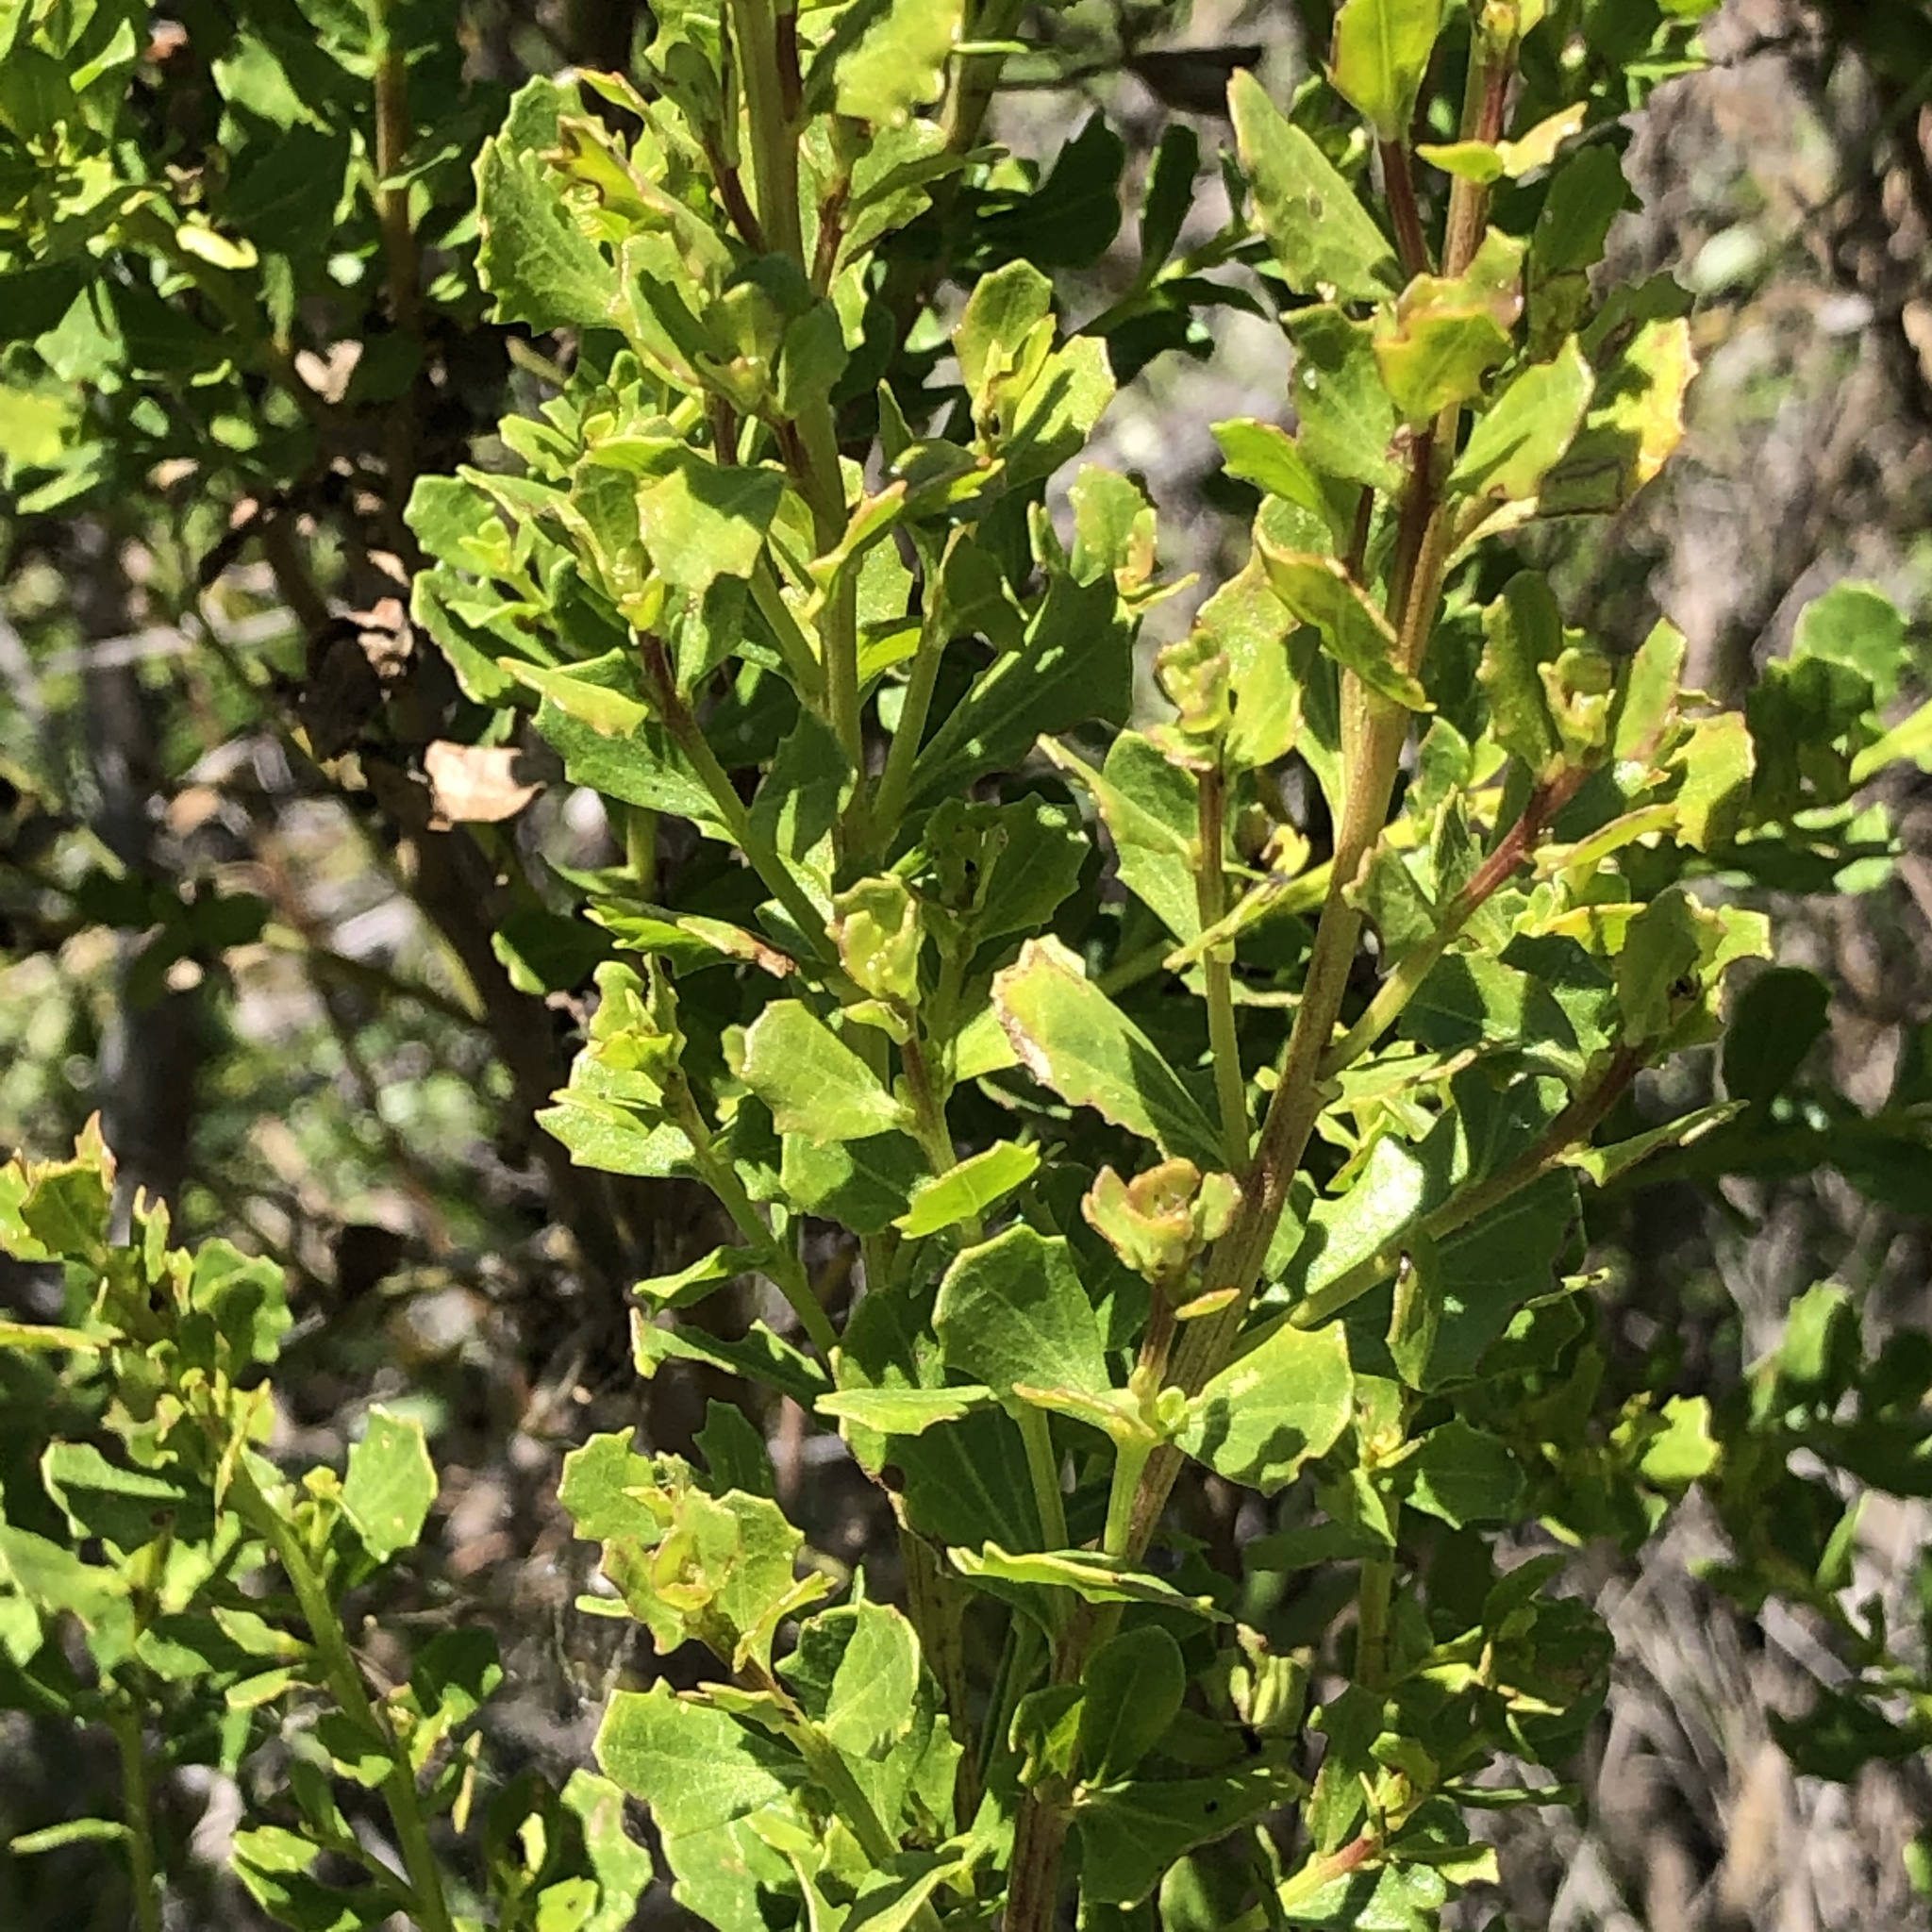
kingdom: Plantae
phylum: Tracheophyta
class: Magnoliopsida
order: Asterales
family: Asteraceae
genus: Baccharis
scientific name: Baccharis pilularis
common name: Coyotebrush
